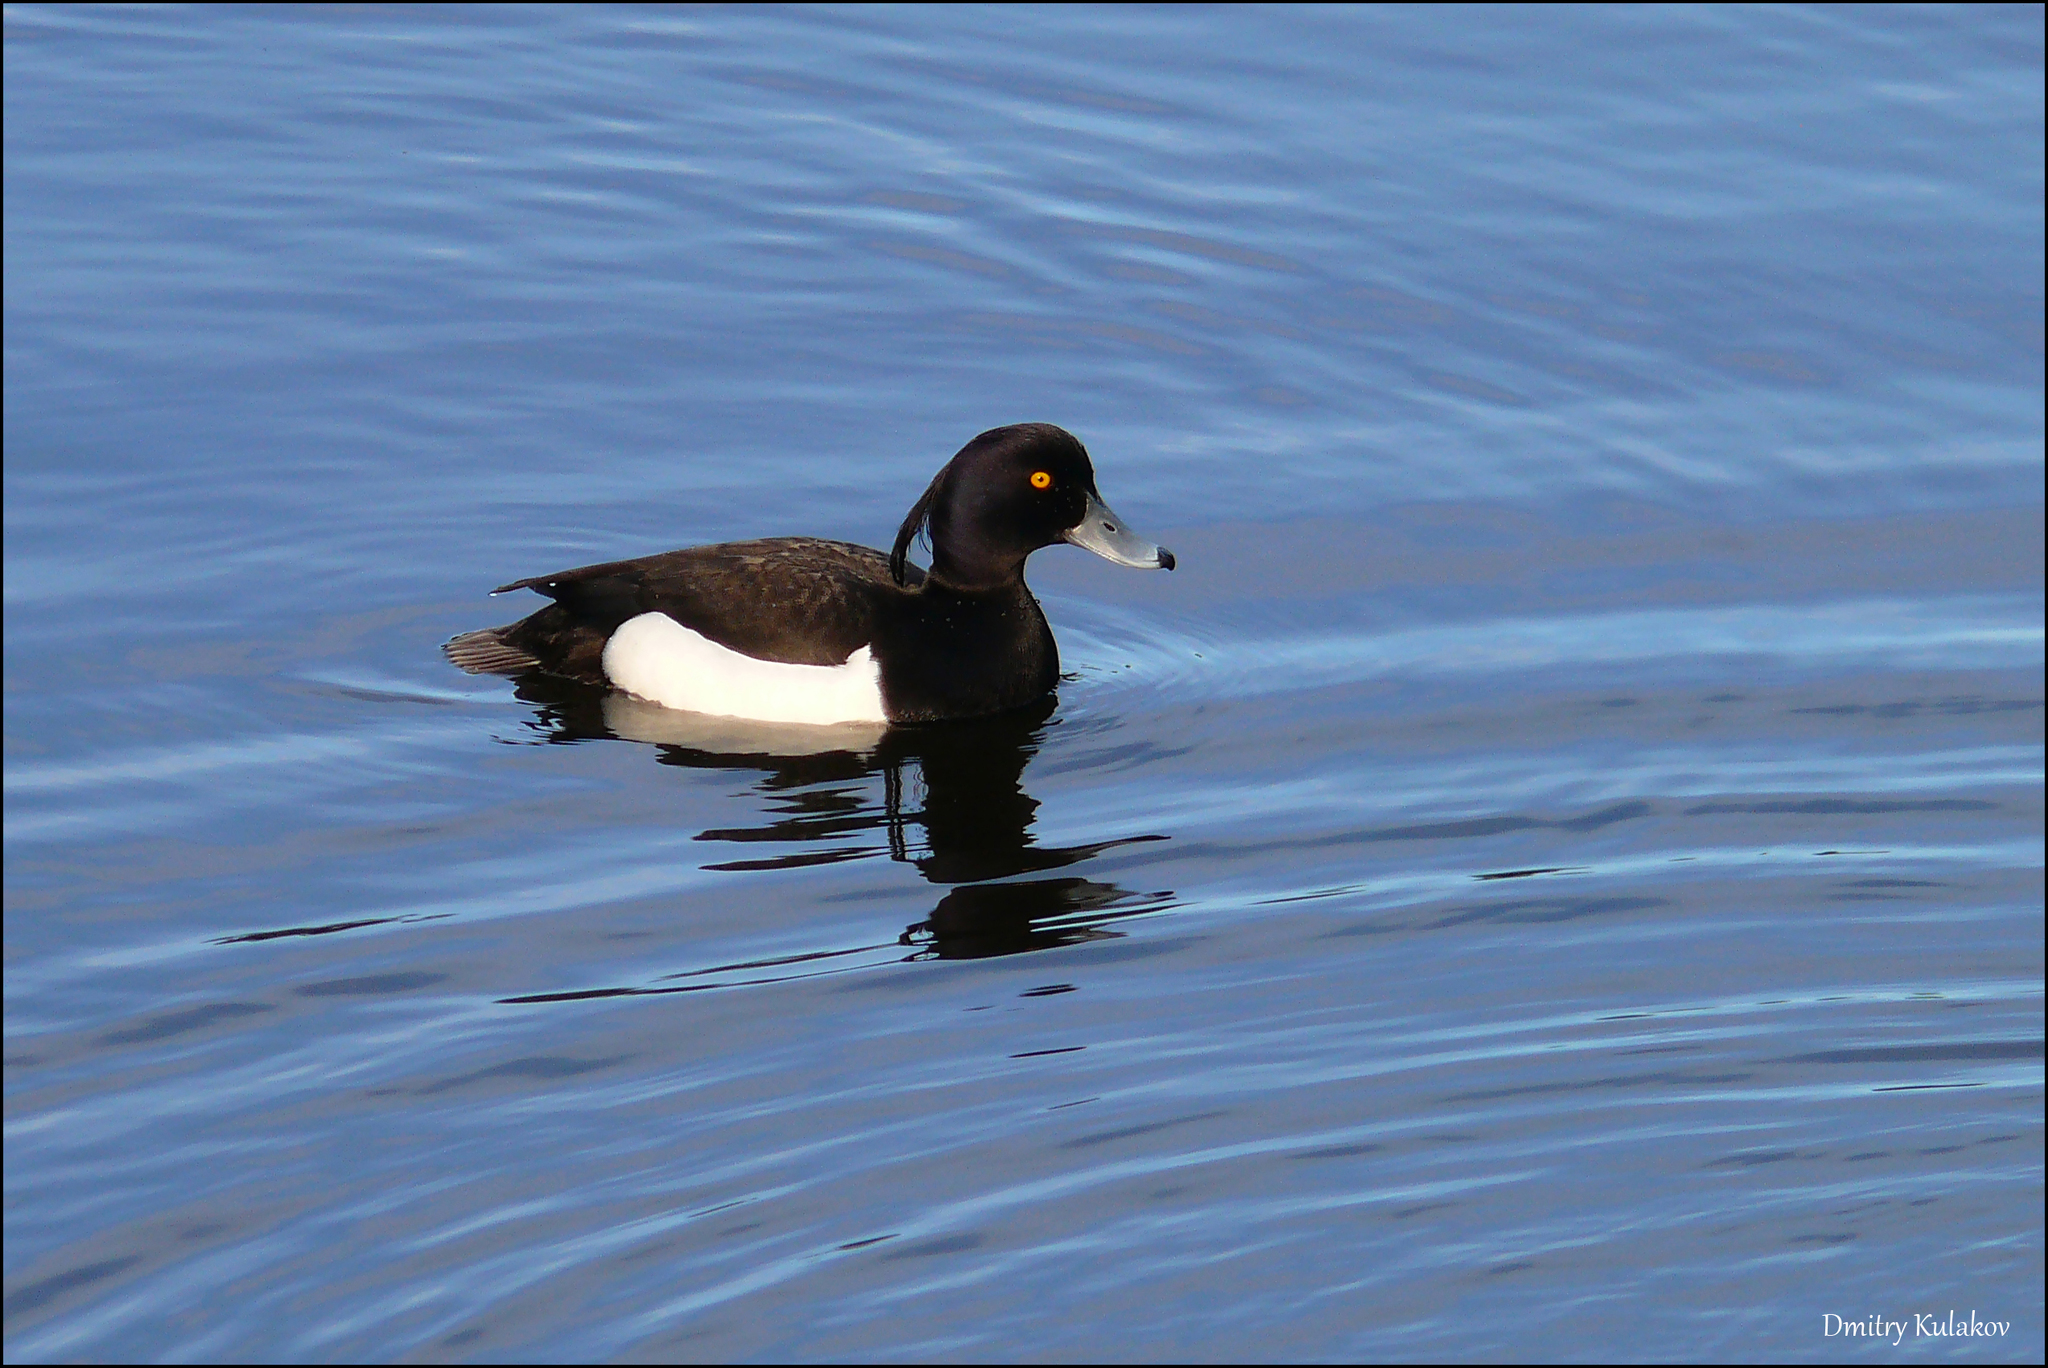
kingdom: Animalia
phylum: Chordata
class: Aves
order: Anseriformes
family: Anatidae
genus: Aythya
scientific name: Aythya fuligula
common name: Tufted duck
